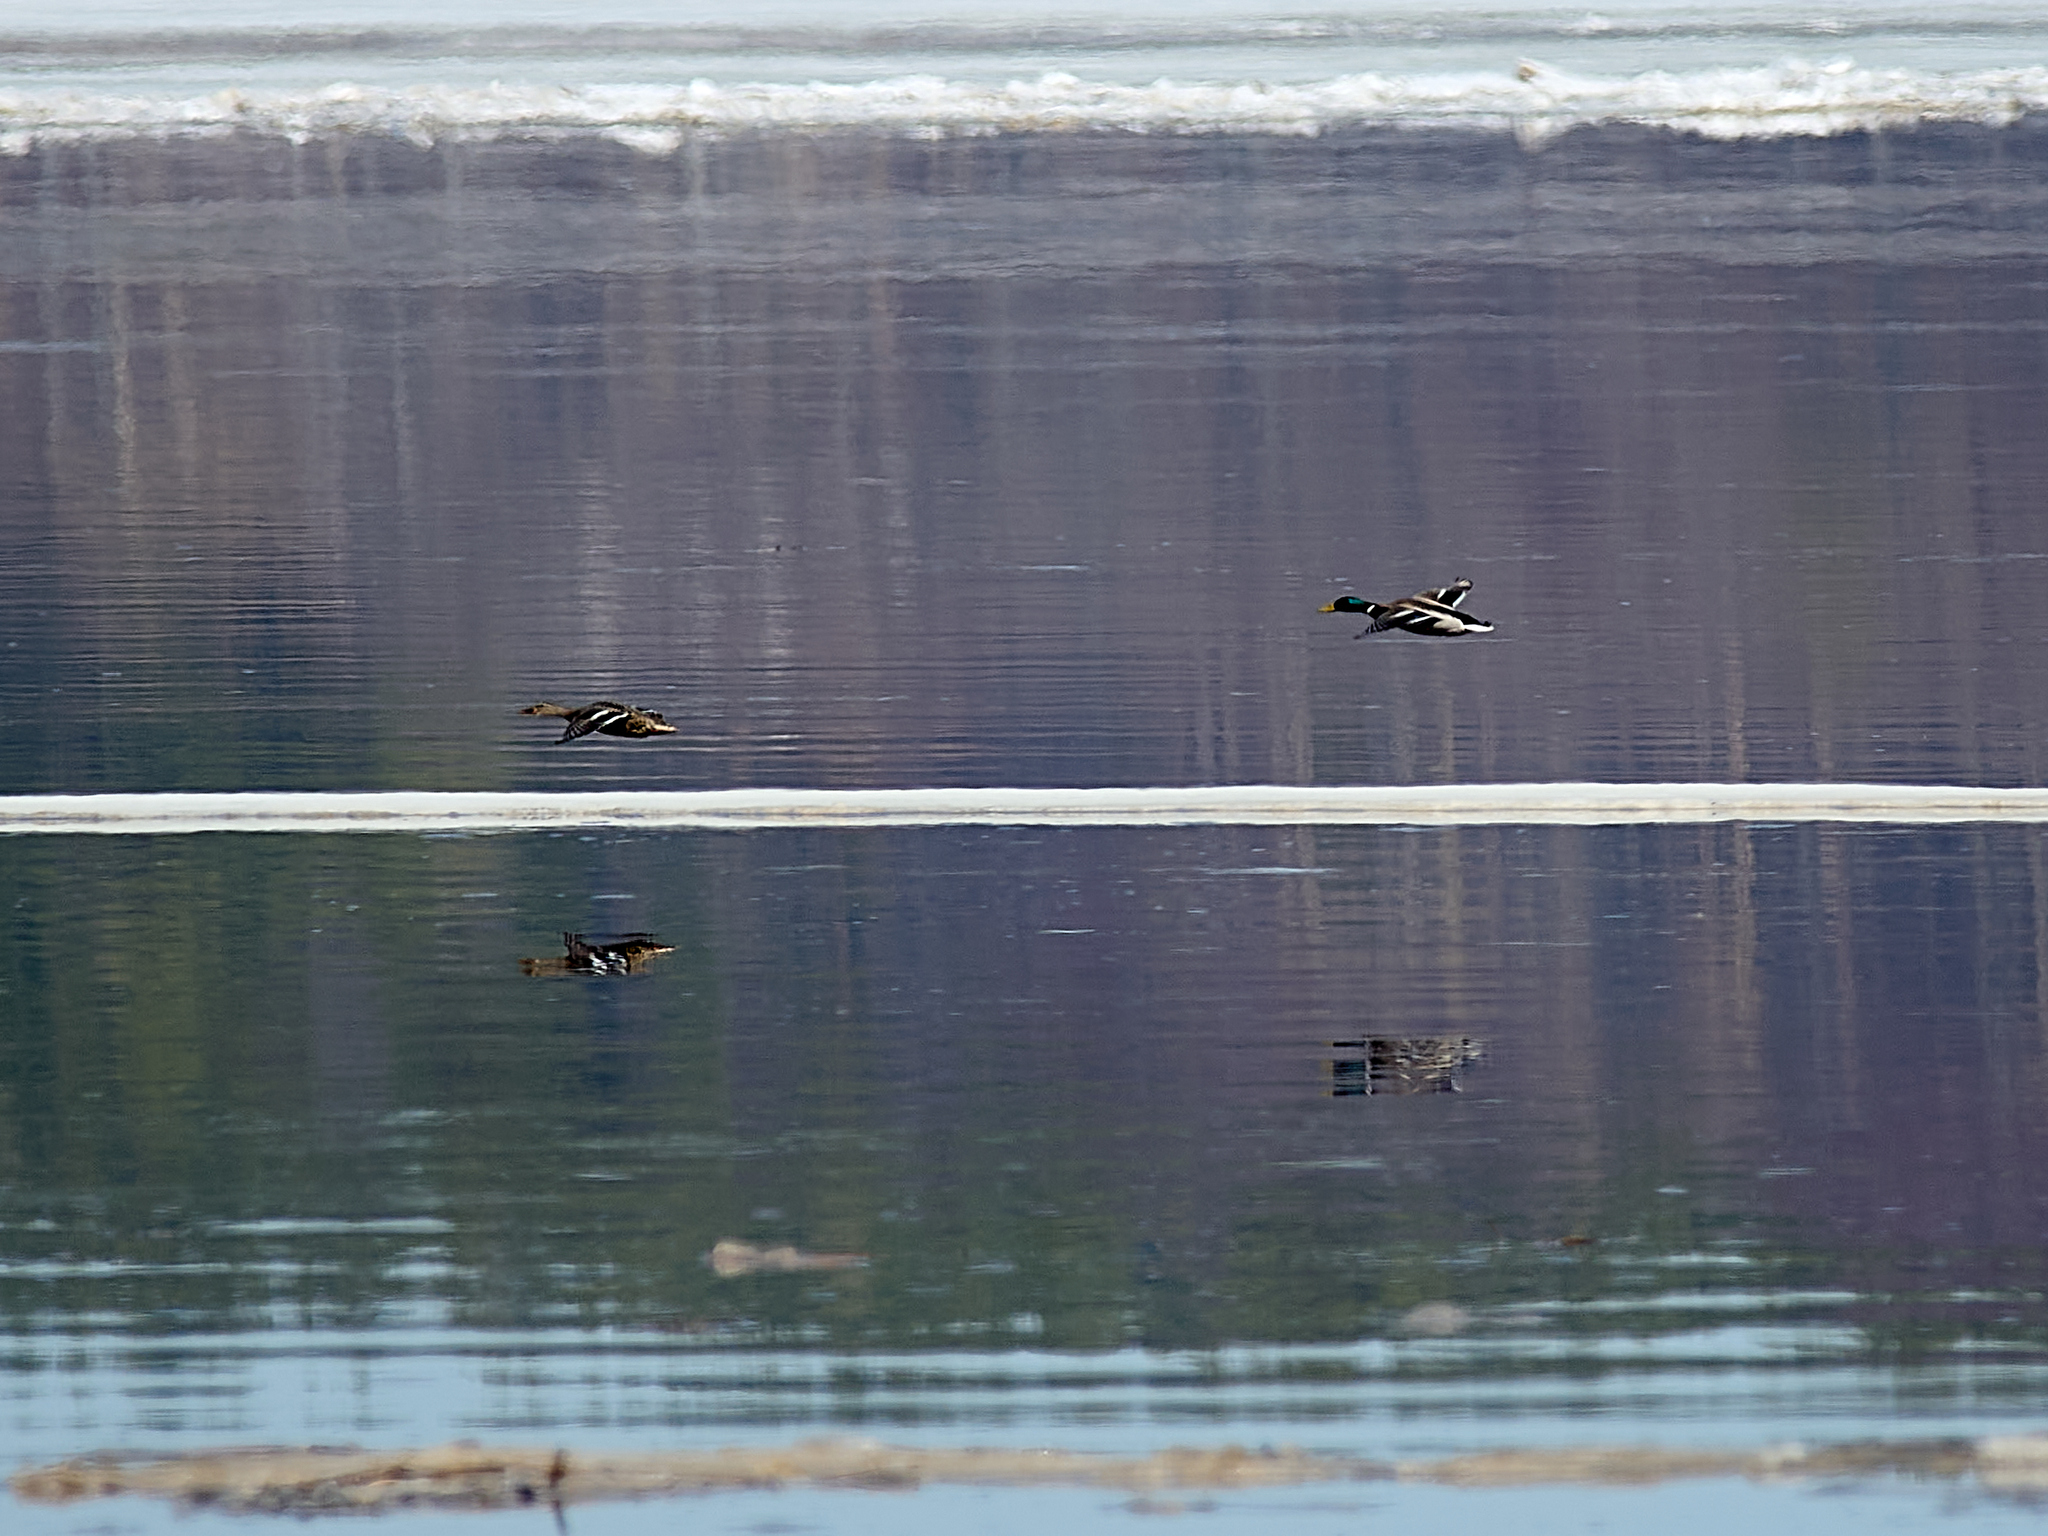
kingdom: Animalia
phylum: Chordata
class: Aves
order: Anseriformes
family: Anatidae
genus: Anas
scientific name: Anas platyrhynchos
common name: Mallard
